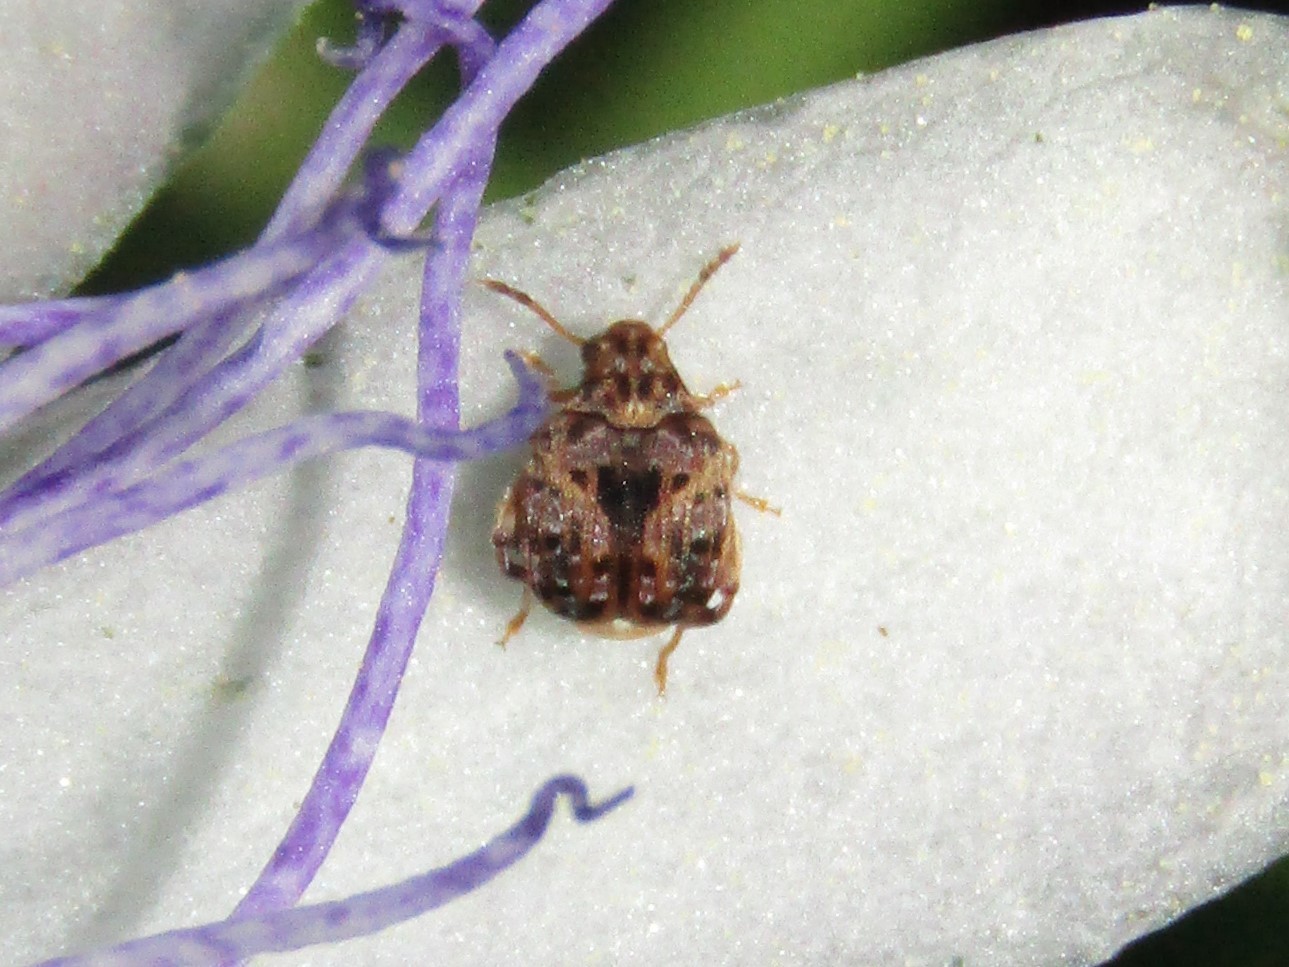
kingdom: Animalia
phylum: Arthropoda
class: Insecta
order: Coleoptera
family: Chrysomelidae
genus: Gibbobruchus
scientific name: Gibbobruchus mimus
